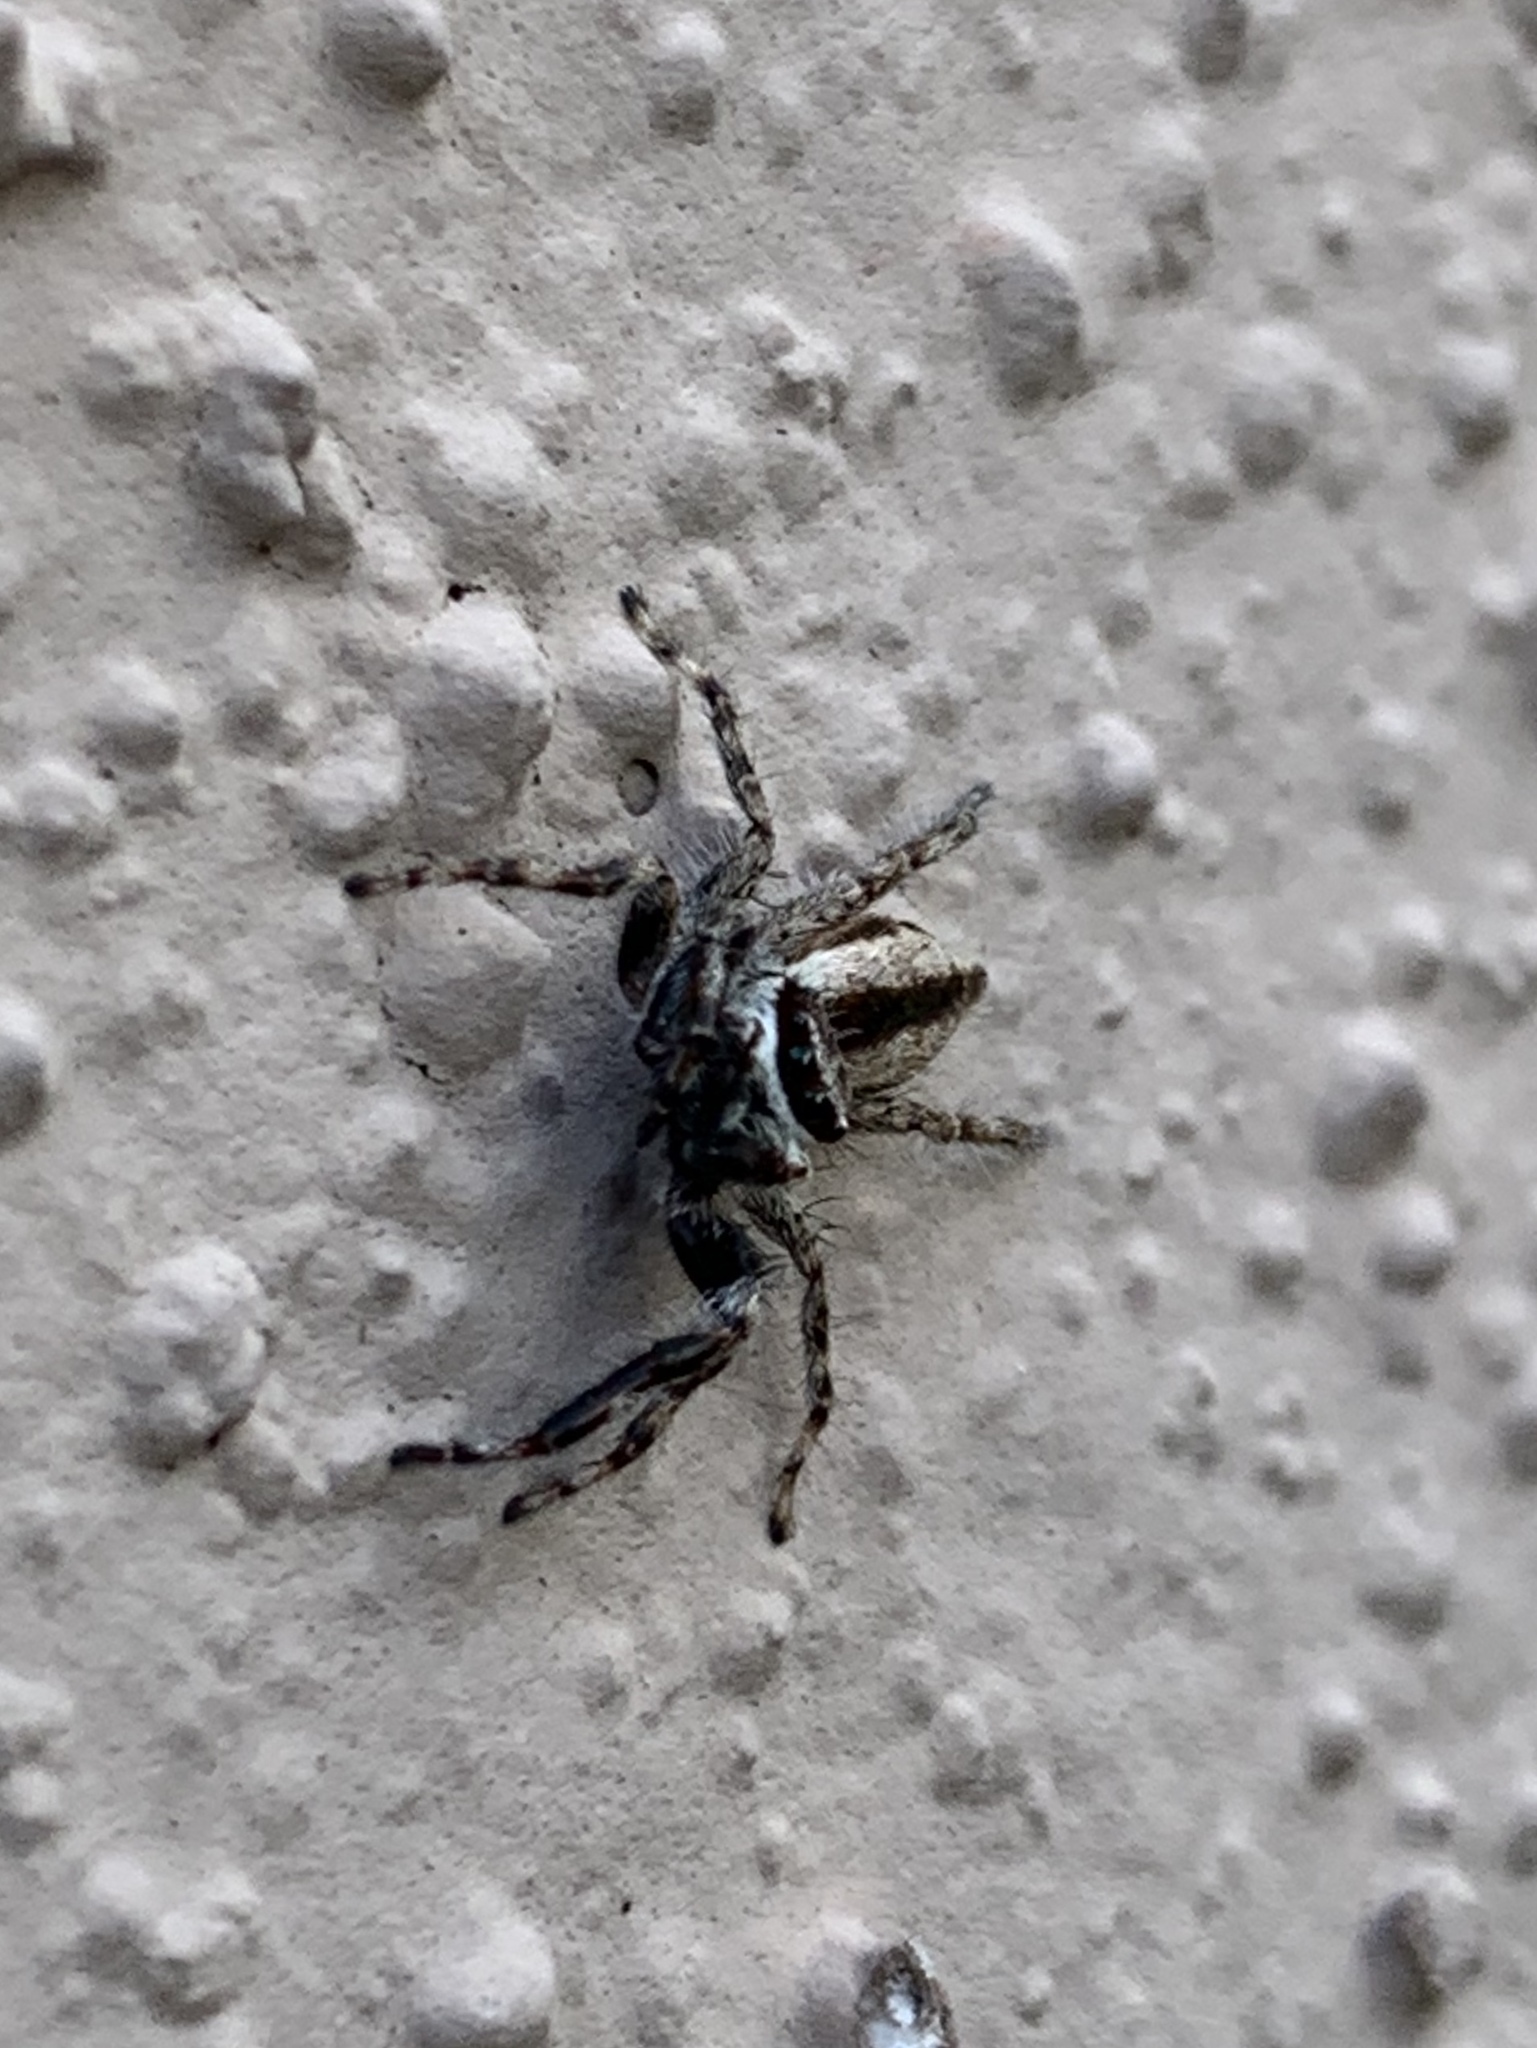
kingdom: Animalia
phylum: Arthropoda
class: Arachnida
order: Araneae
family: Salticidae
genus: Menemerus
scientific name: Menemerus bivittatus
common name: Gray wall jumper
